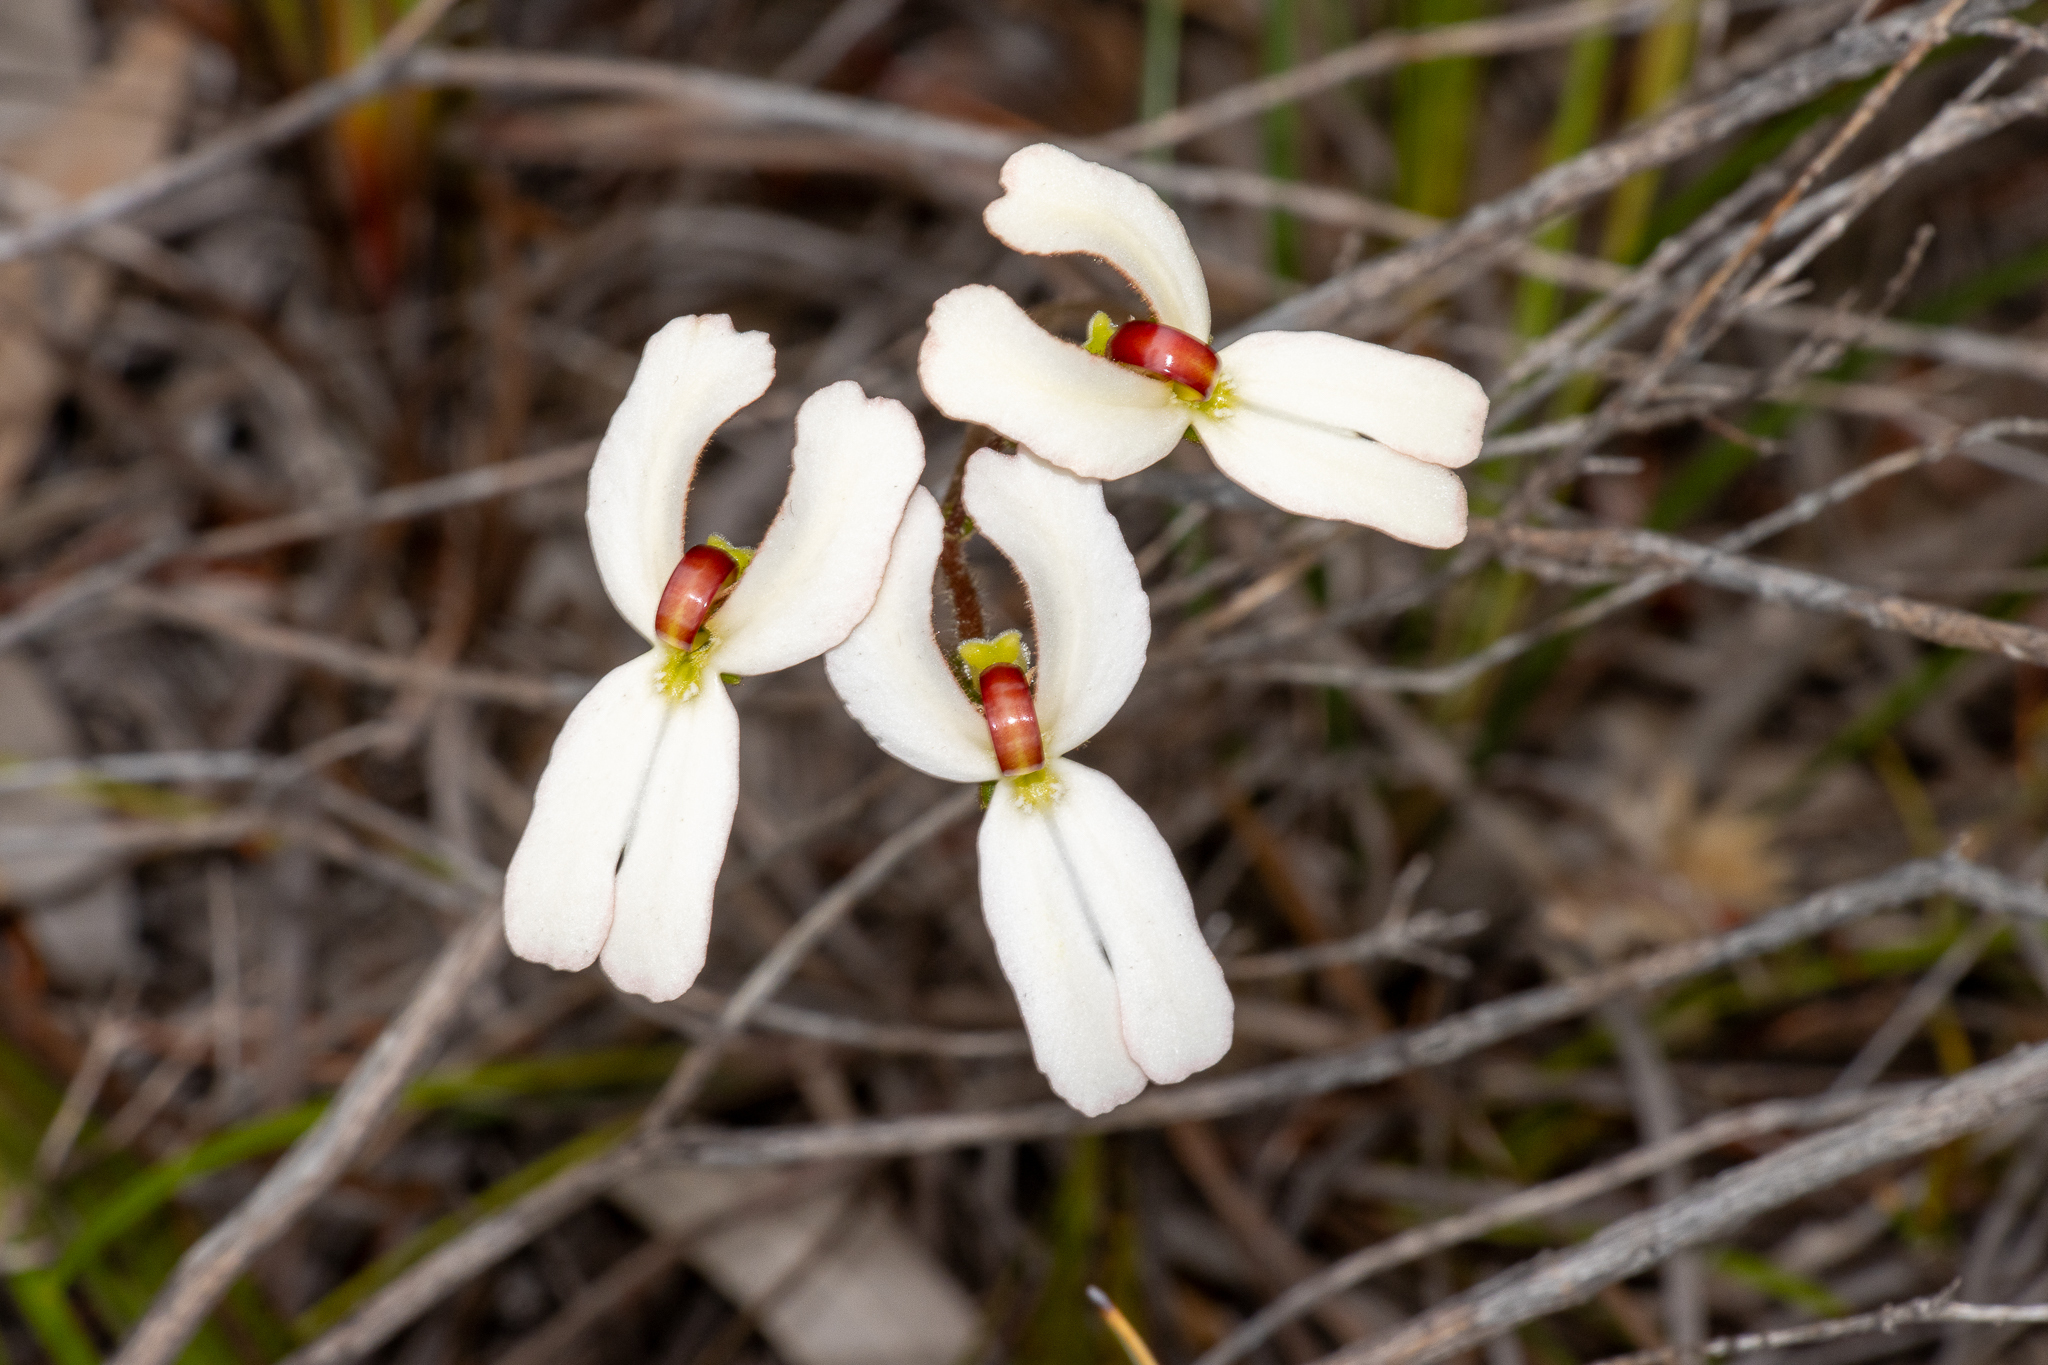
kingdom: Plantae
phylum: Tracheophyta
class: Magnoliopsida
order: Asterales
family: Stylidiaceae
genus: Stylidium
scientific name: Stylidium schoenoides
